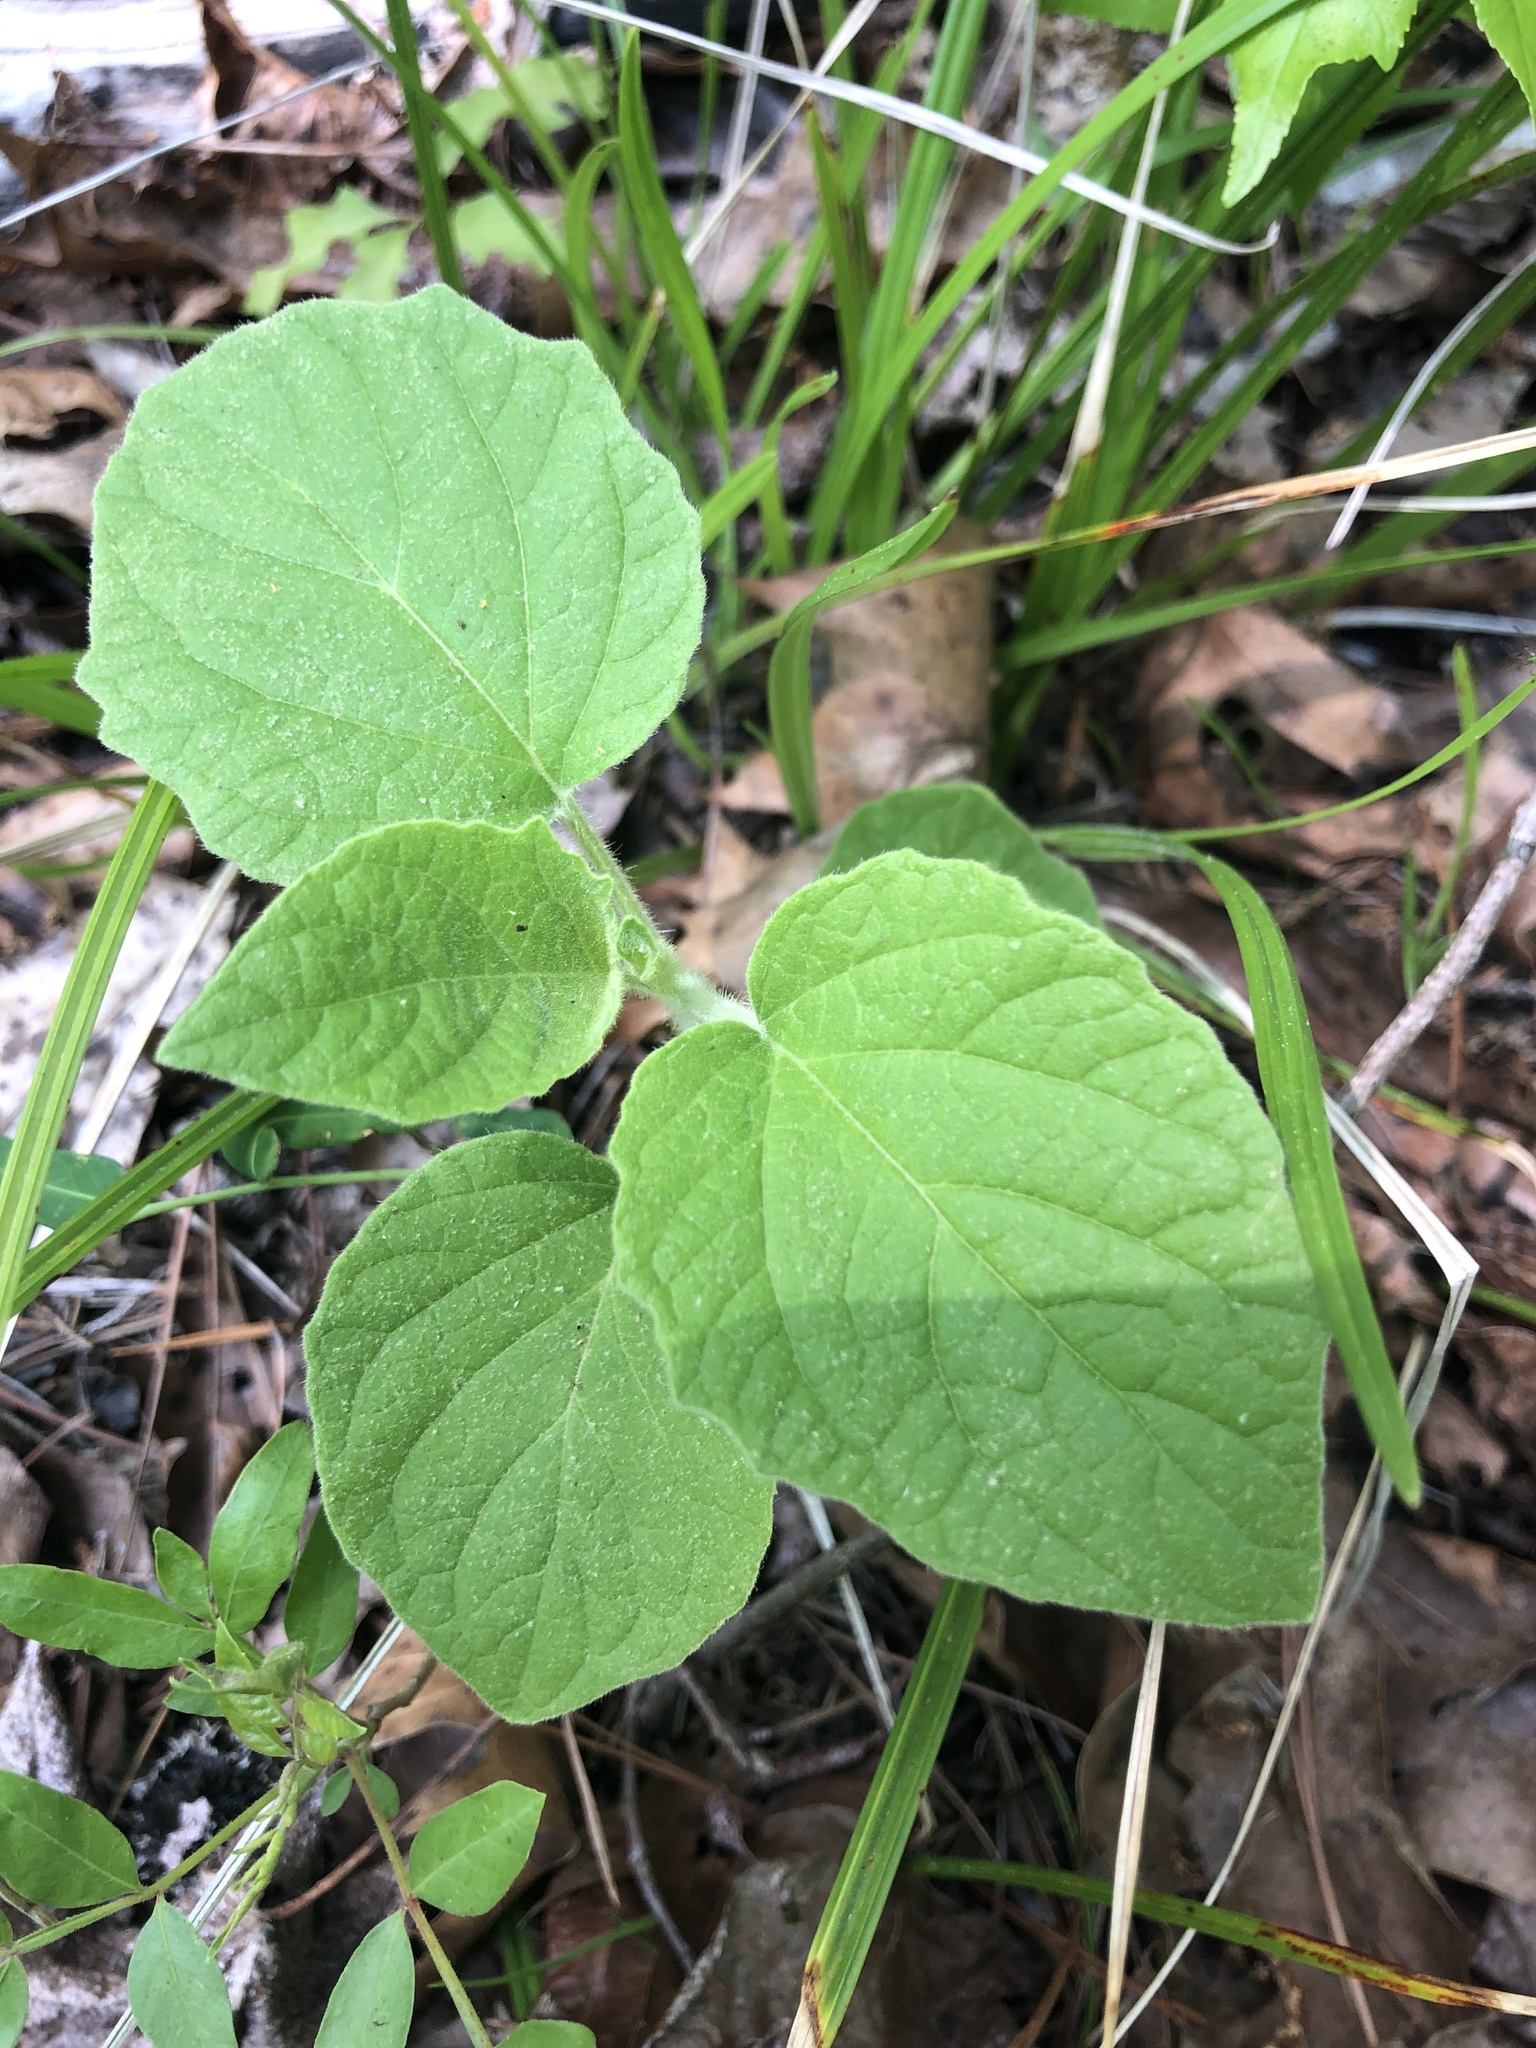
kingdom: Plantae
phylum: Tracheophyta
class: Magnoliopsida
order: Solanales
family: Solanaceae
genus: Physalis
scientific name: Physalis heterophylla
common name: Clammy ground-cherry
